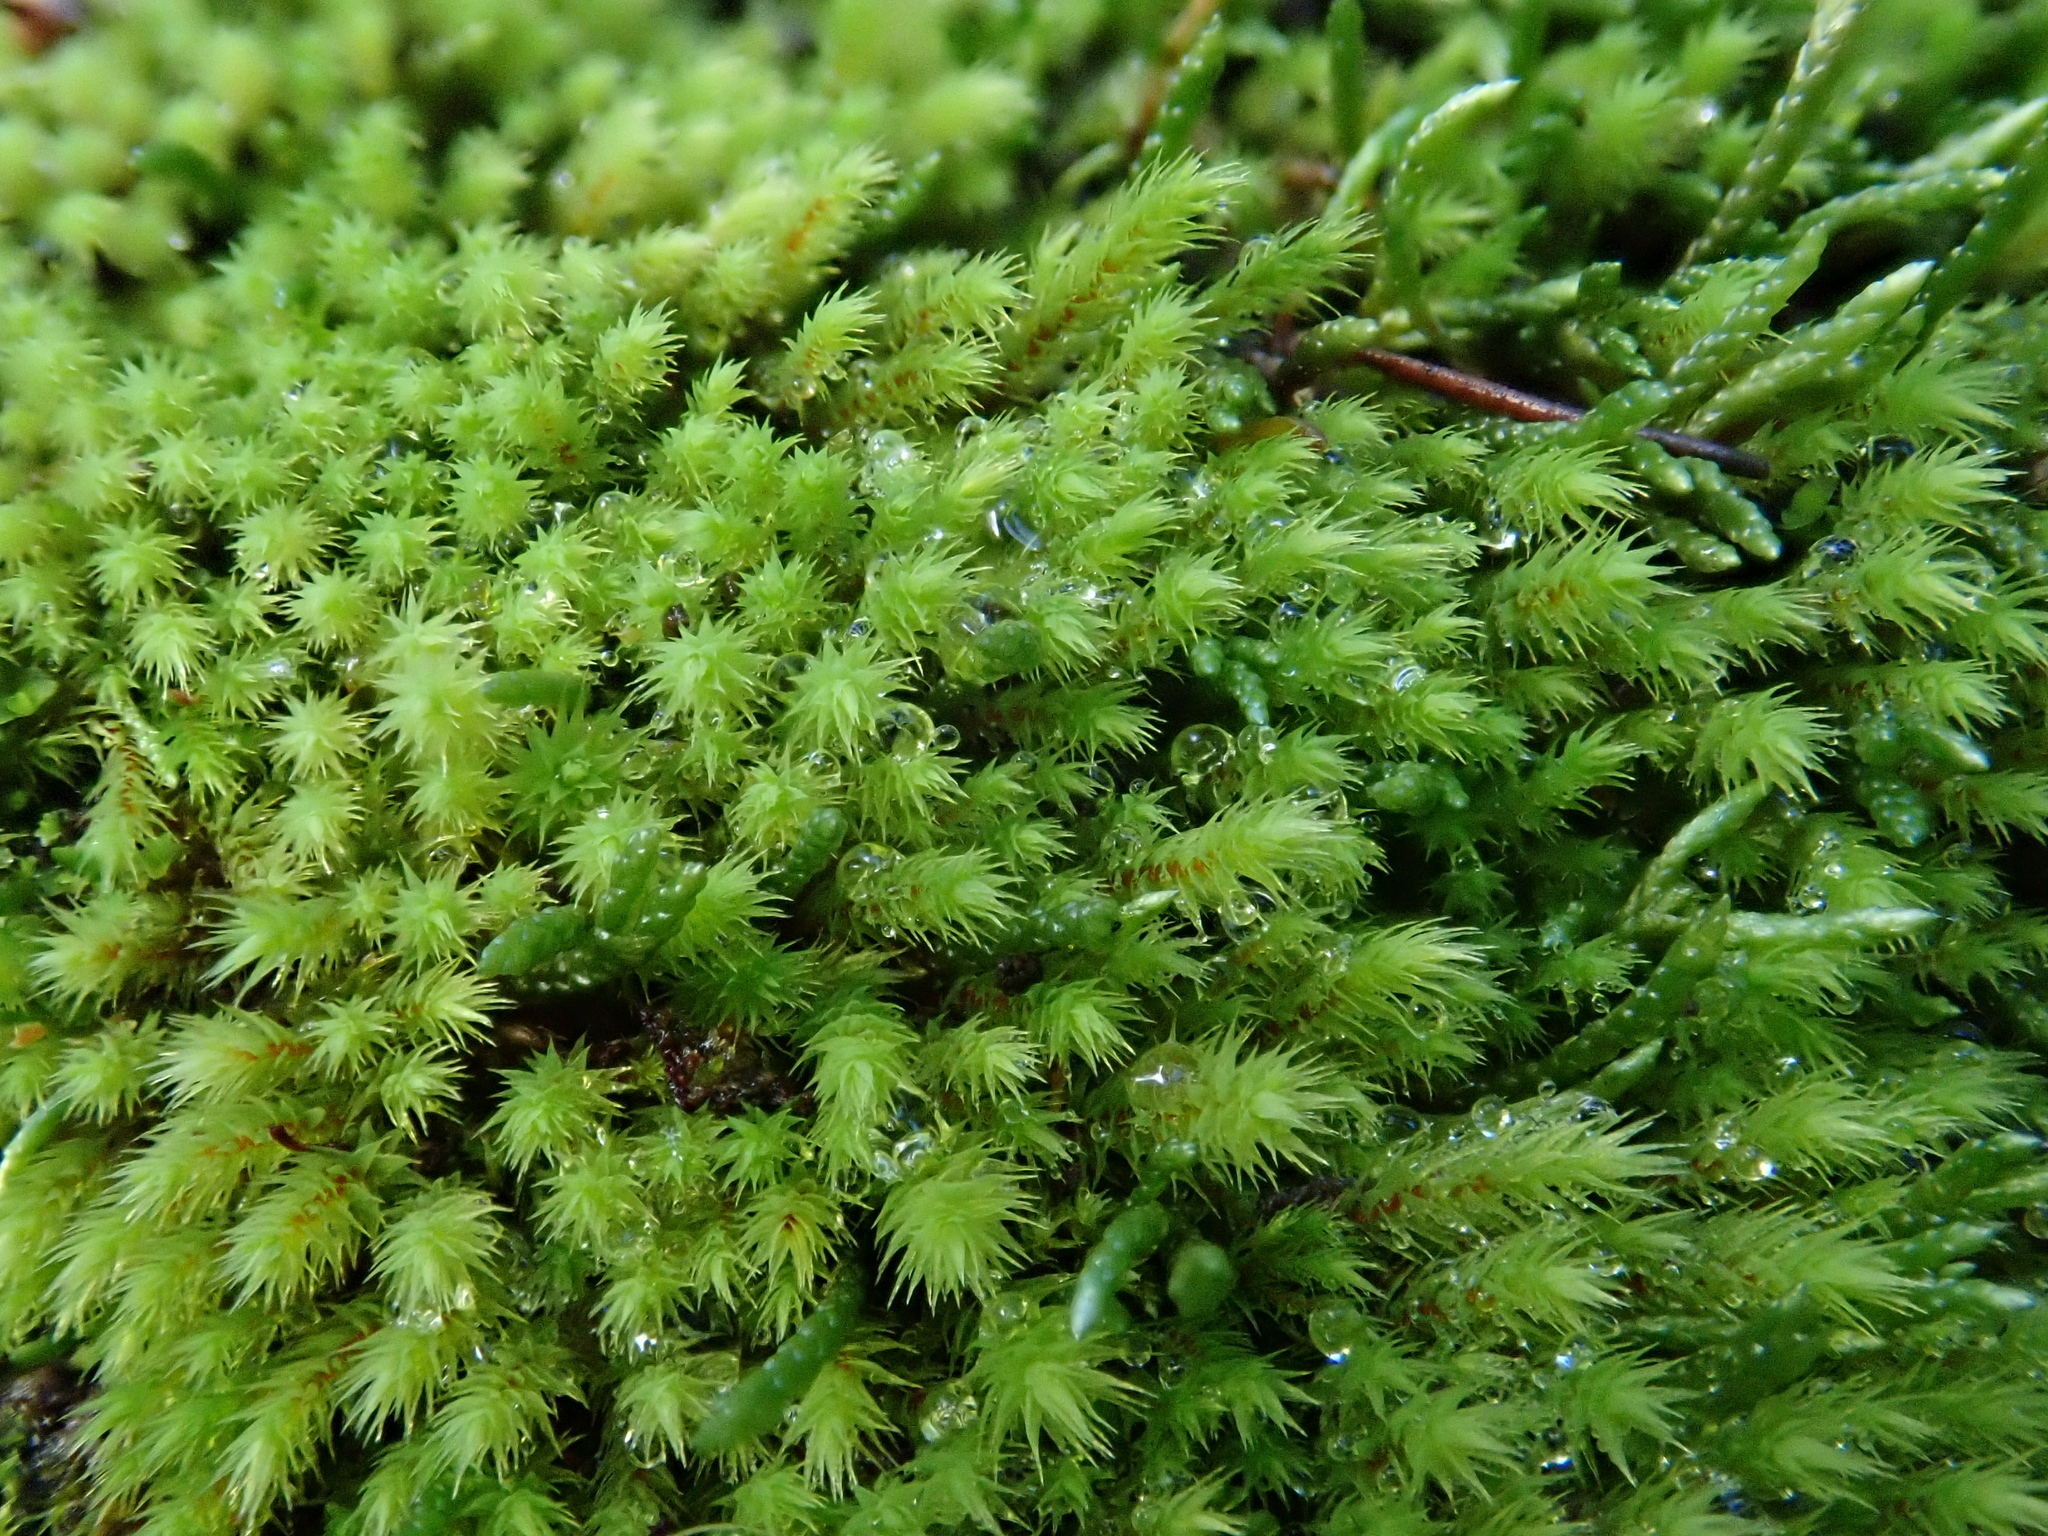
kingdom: Plantae
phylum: Bryophyta
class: Bryopsida
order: Bartramiales
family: Bartramiaceae
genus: Philonotis
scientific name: Philonotis rigida
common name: Rigid apple-moss
